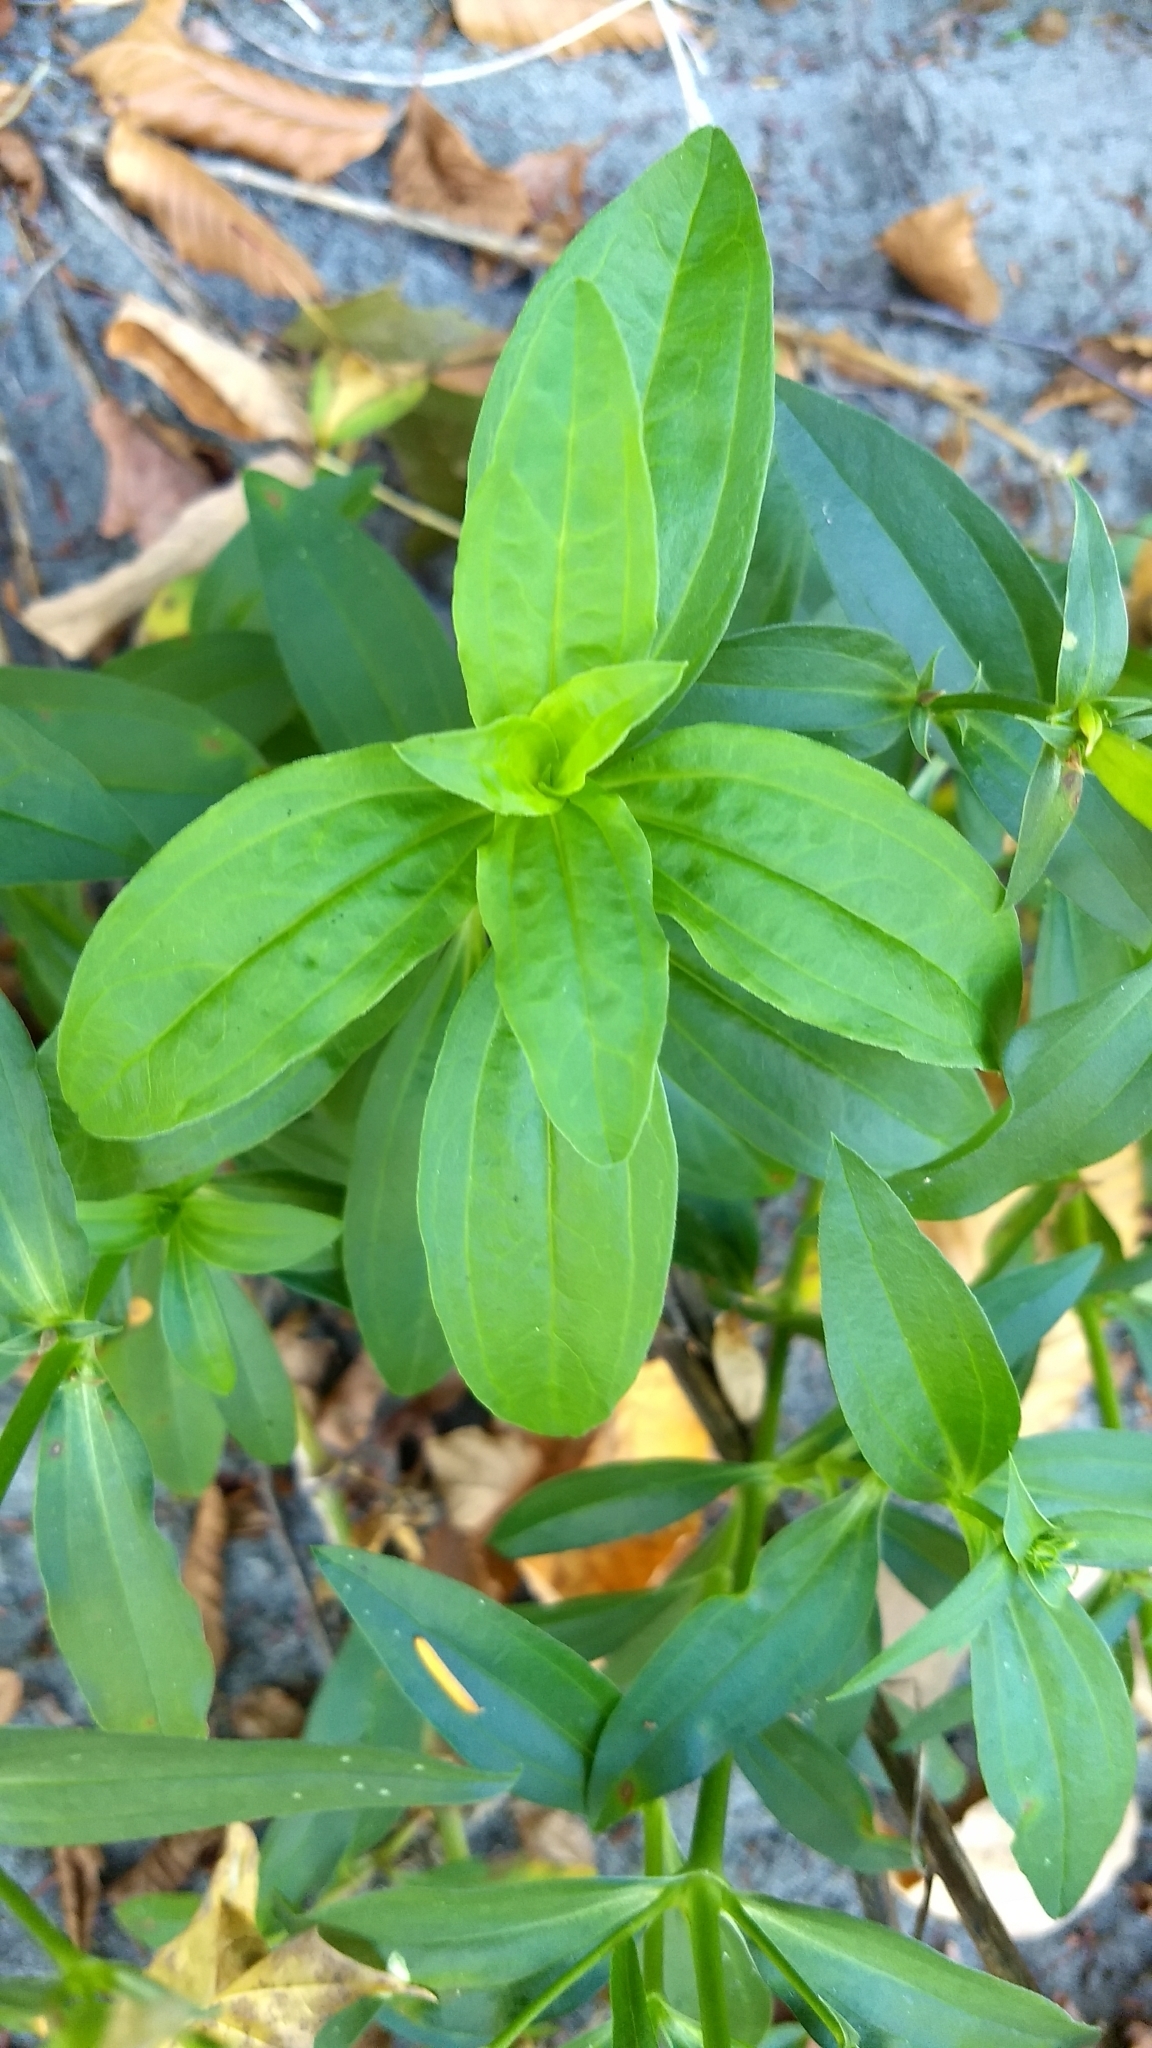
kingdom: Plantae
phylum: Tracheophyta
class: Magnoliopsida
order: Caryophyllales
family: Caryophyllaceae
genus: Saponaria
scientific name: Saponaria officinalis
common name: Soapwort
